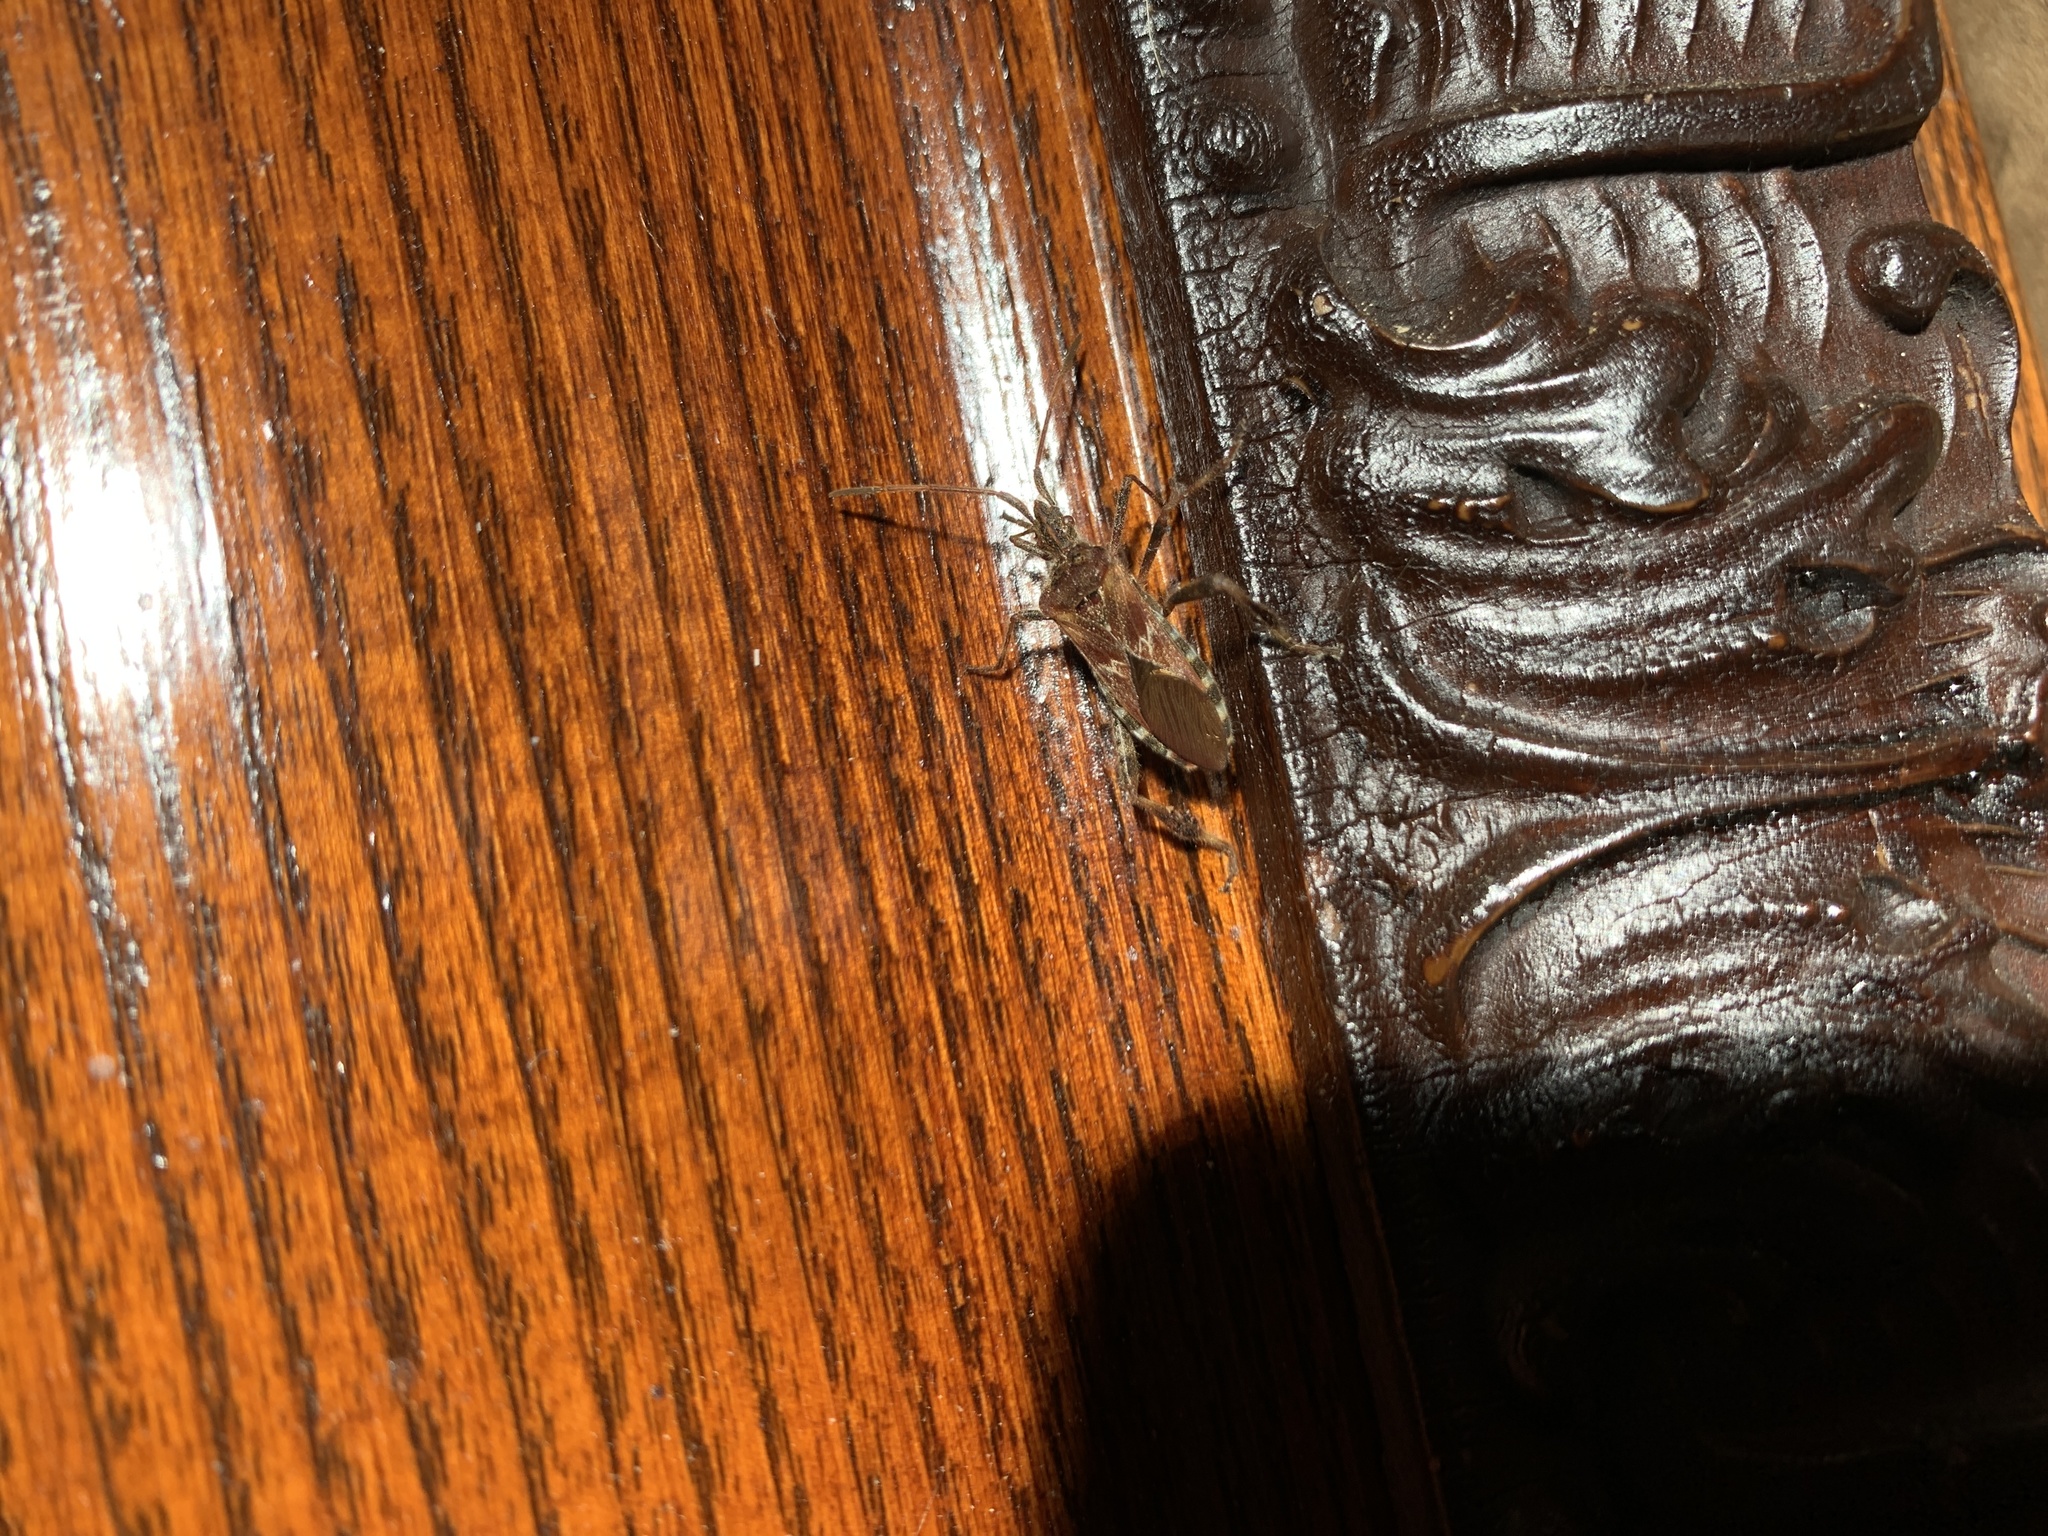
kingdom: Animalia
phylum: Arthropoda
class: Insecta
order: Hemiptera
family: Coreidae
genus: Leptoglossus
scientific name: Leptoglossus occidentalis
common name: Western conifer-seed bug
